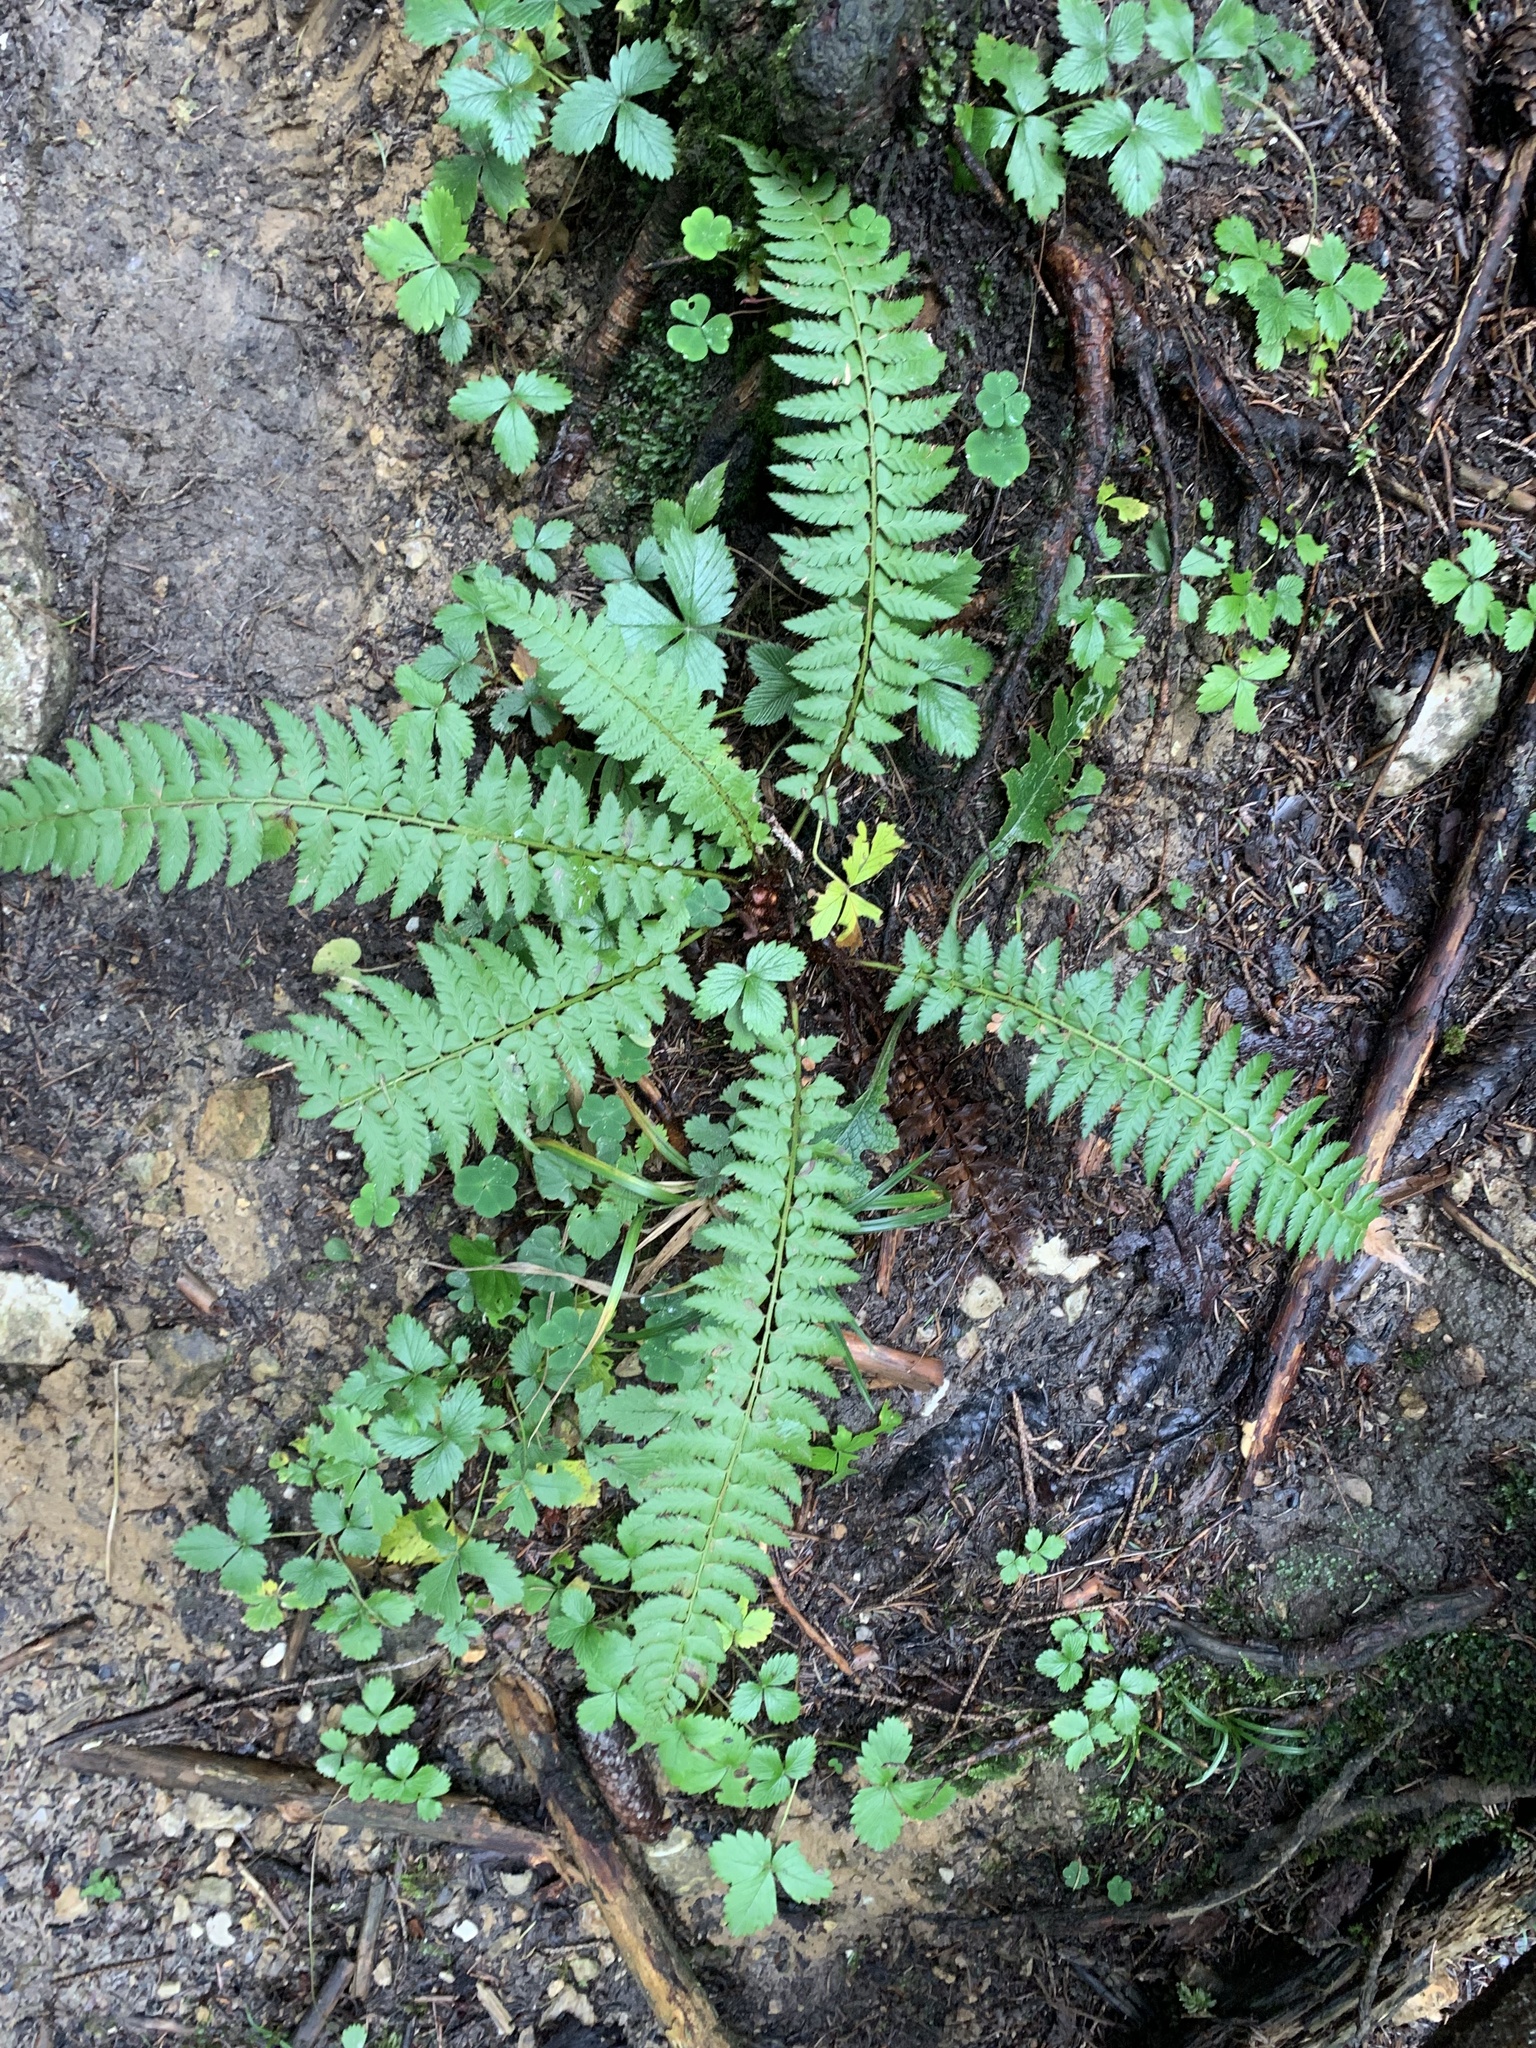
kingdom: Plantae
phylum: Tracheophyta
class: Polypodiopsida
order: Polypodiales
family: Dryopteridaceae
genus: Polystichum
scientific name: Polystichum aculeatum
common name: Hard shield-fern
